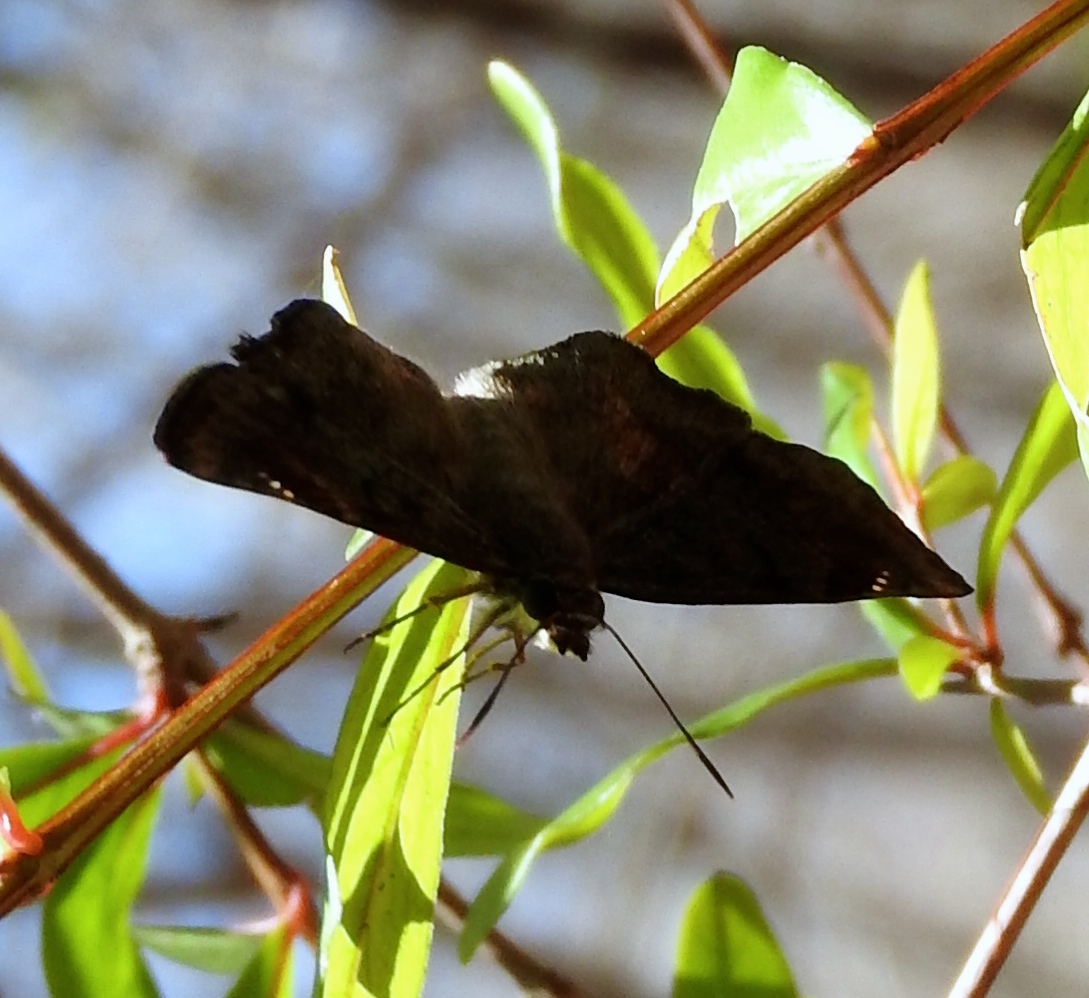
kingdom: Animalia
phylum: Arthropoda
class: Insecta
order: Lepidoptera
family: Hesperiidae
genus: Antigonus
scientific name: Antigonus erosus
